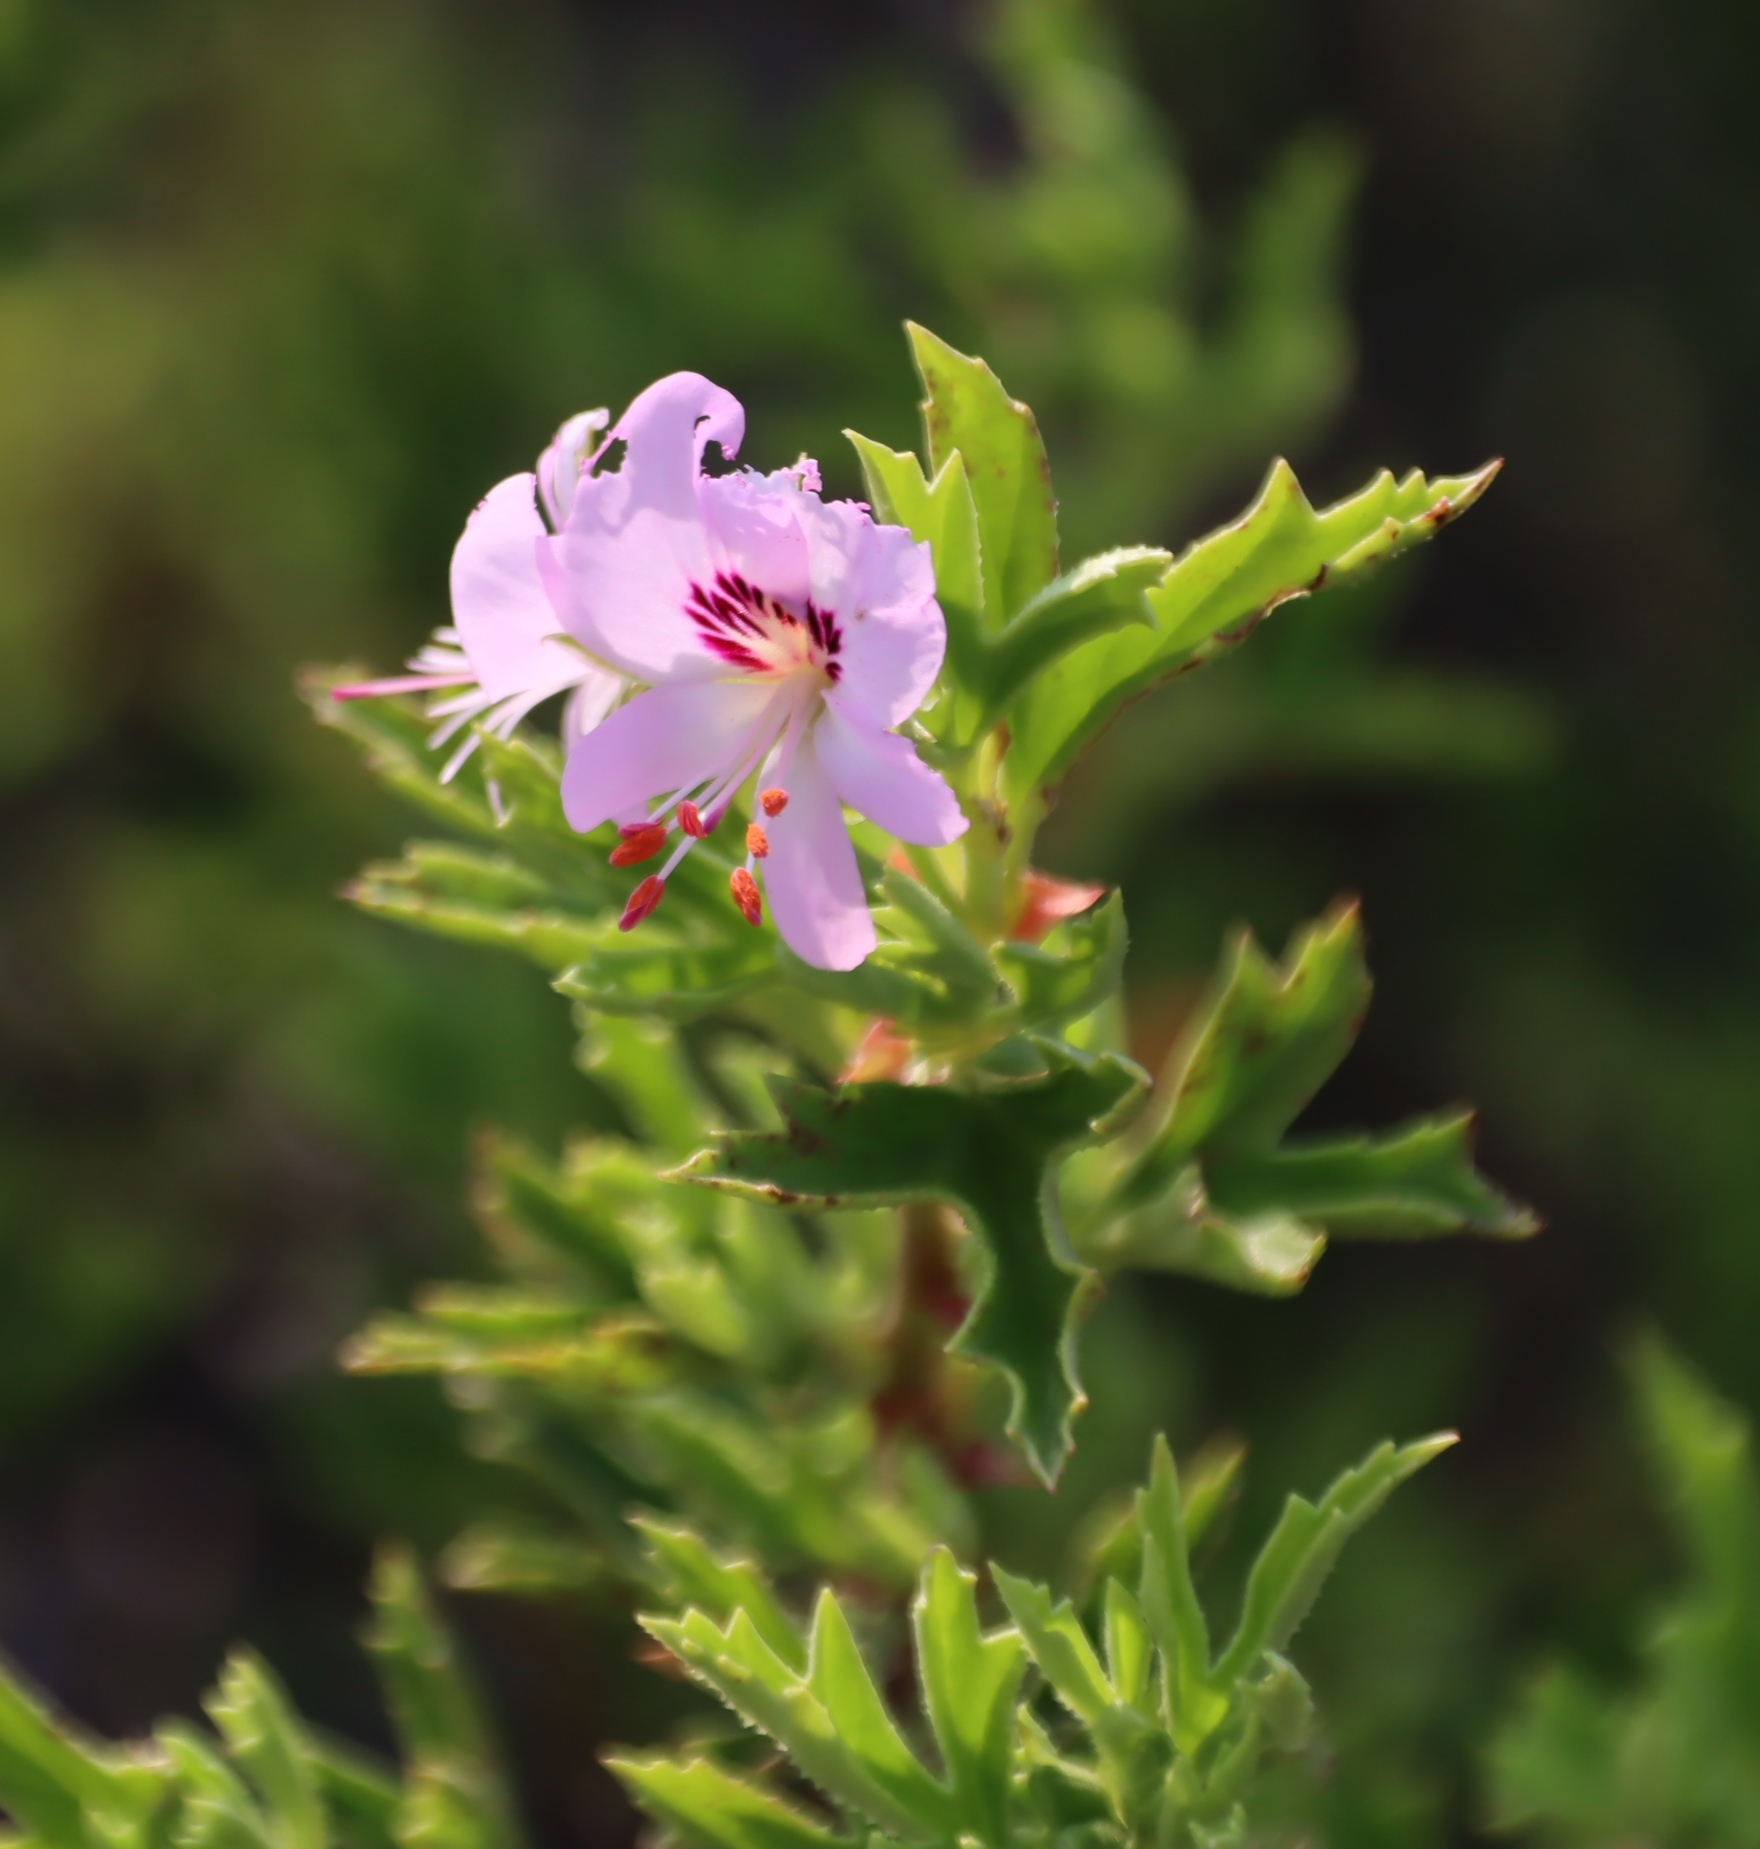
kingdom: Plantae
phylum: Tracheophyta
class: Magnoliopsida
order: Geraniales
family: Geraniaceae
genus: Pelargonium
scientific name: Pelargonium scabrum
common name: Apricot geranium
